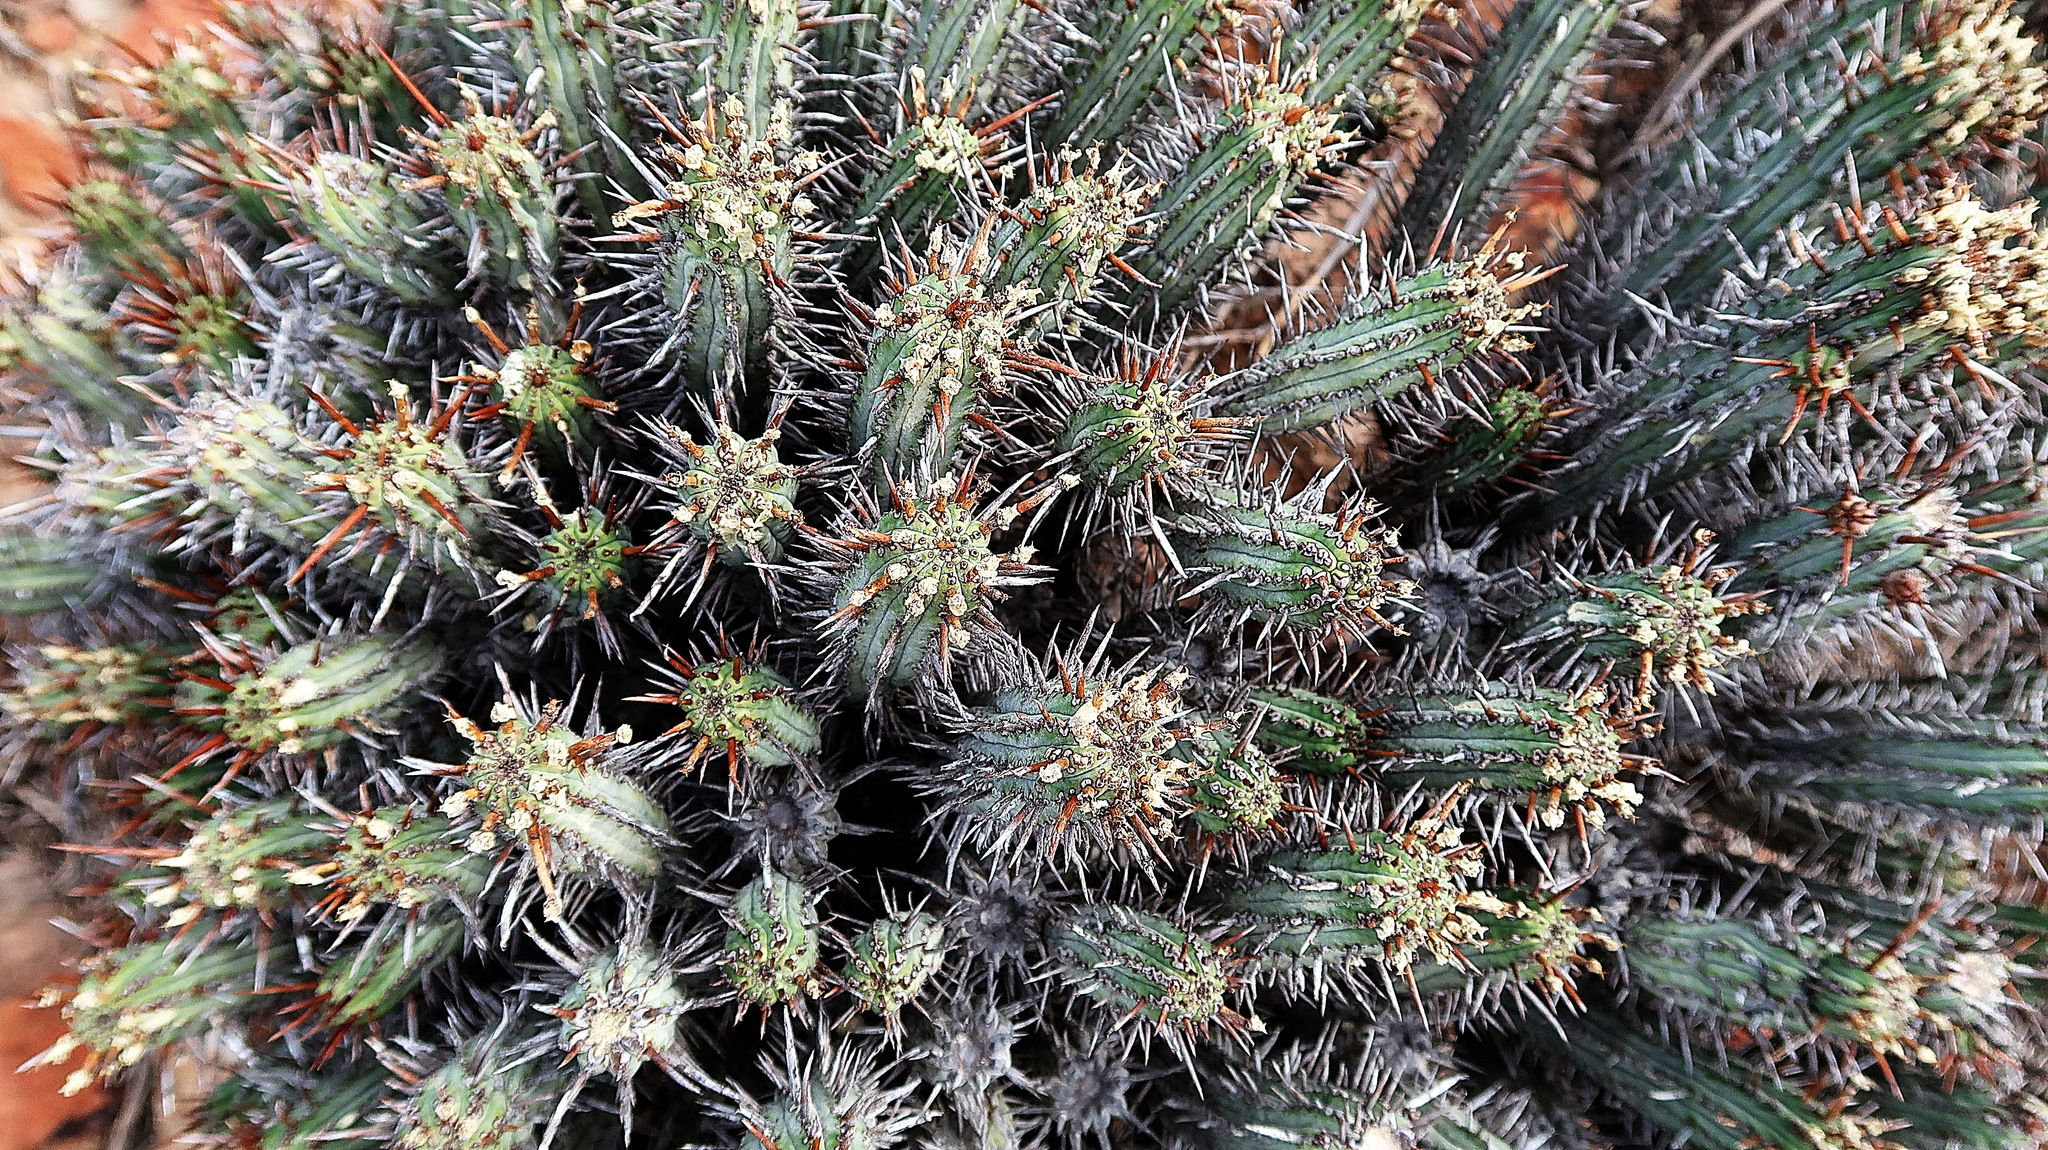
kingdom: Plantae
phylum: Tracheophyta
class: Magnoliopsida
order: Malpighiales
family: Euphorbiaceae
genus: Euphorbia
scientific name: Euphorbia heptagona
